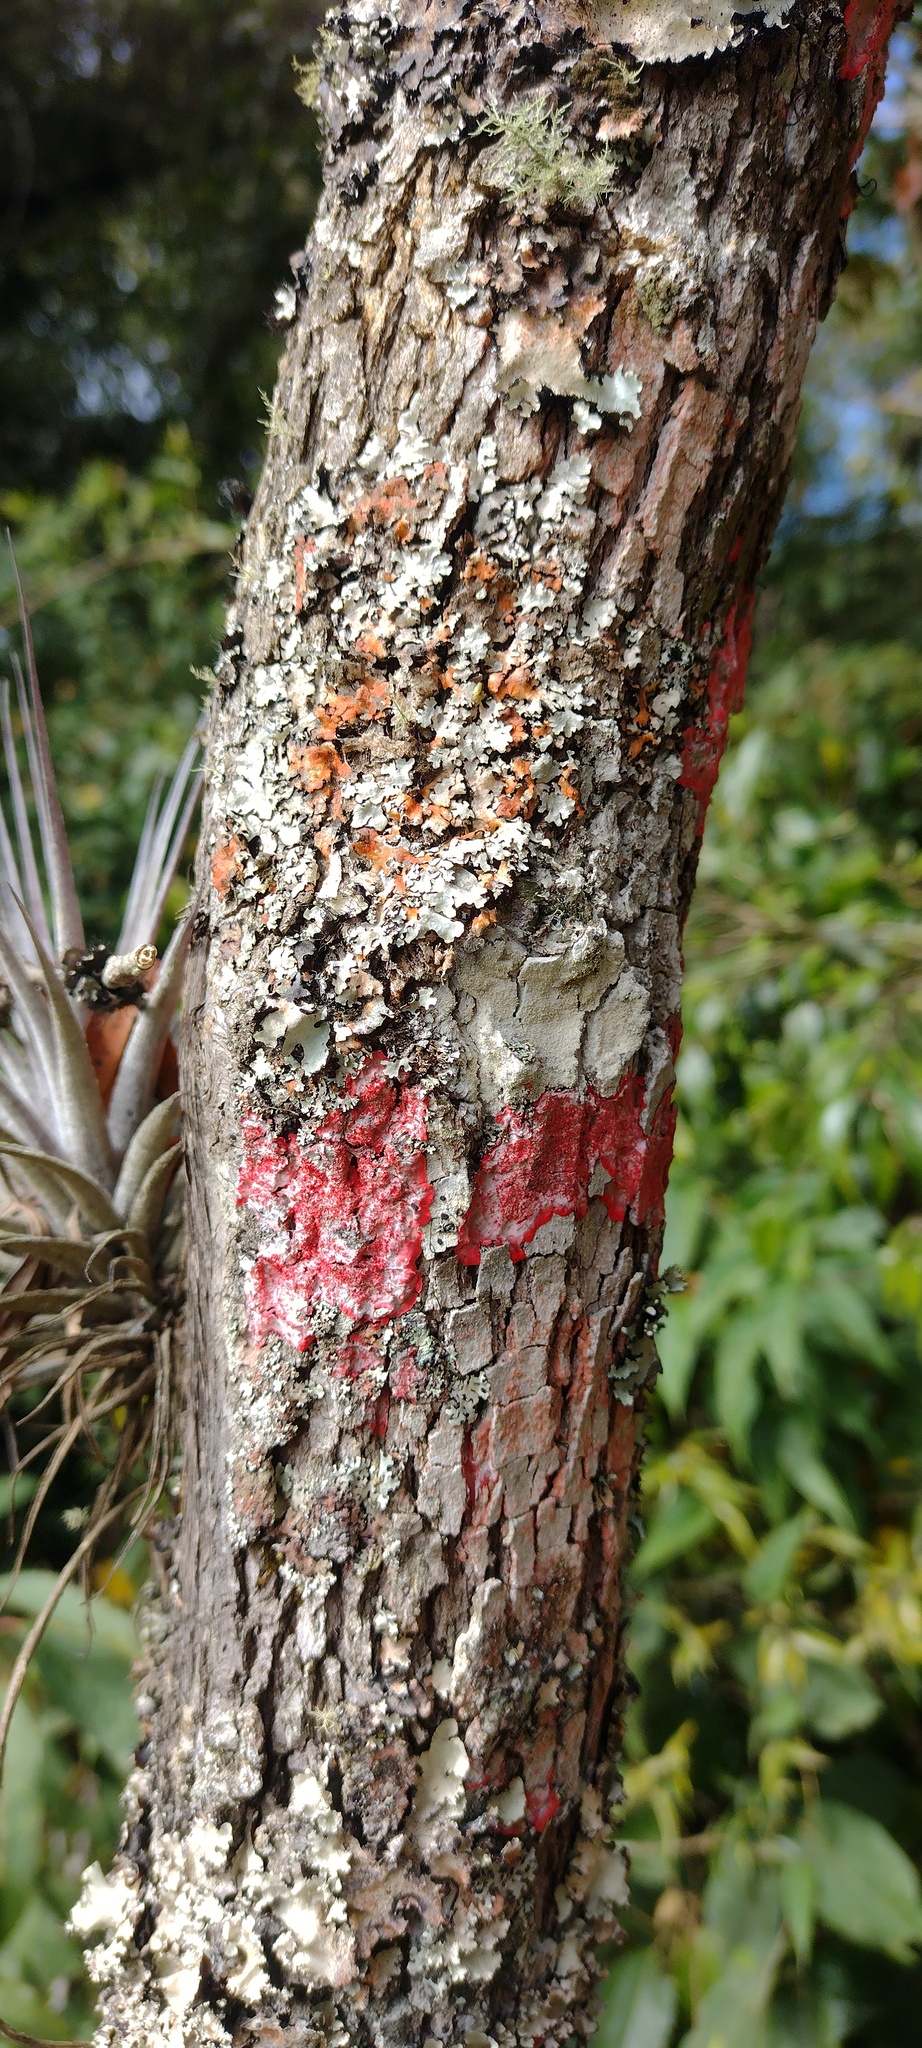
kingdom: Fungi
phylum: Ascomycota
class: Arthoniomycetes
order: Arthoniales
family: Arthoniaceae
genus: Herpothallon
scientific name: Herpothallon rubrocinctum
